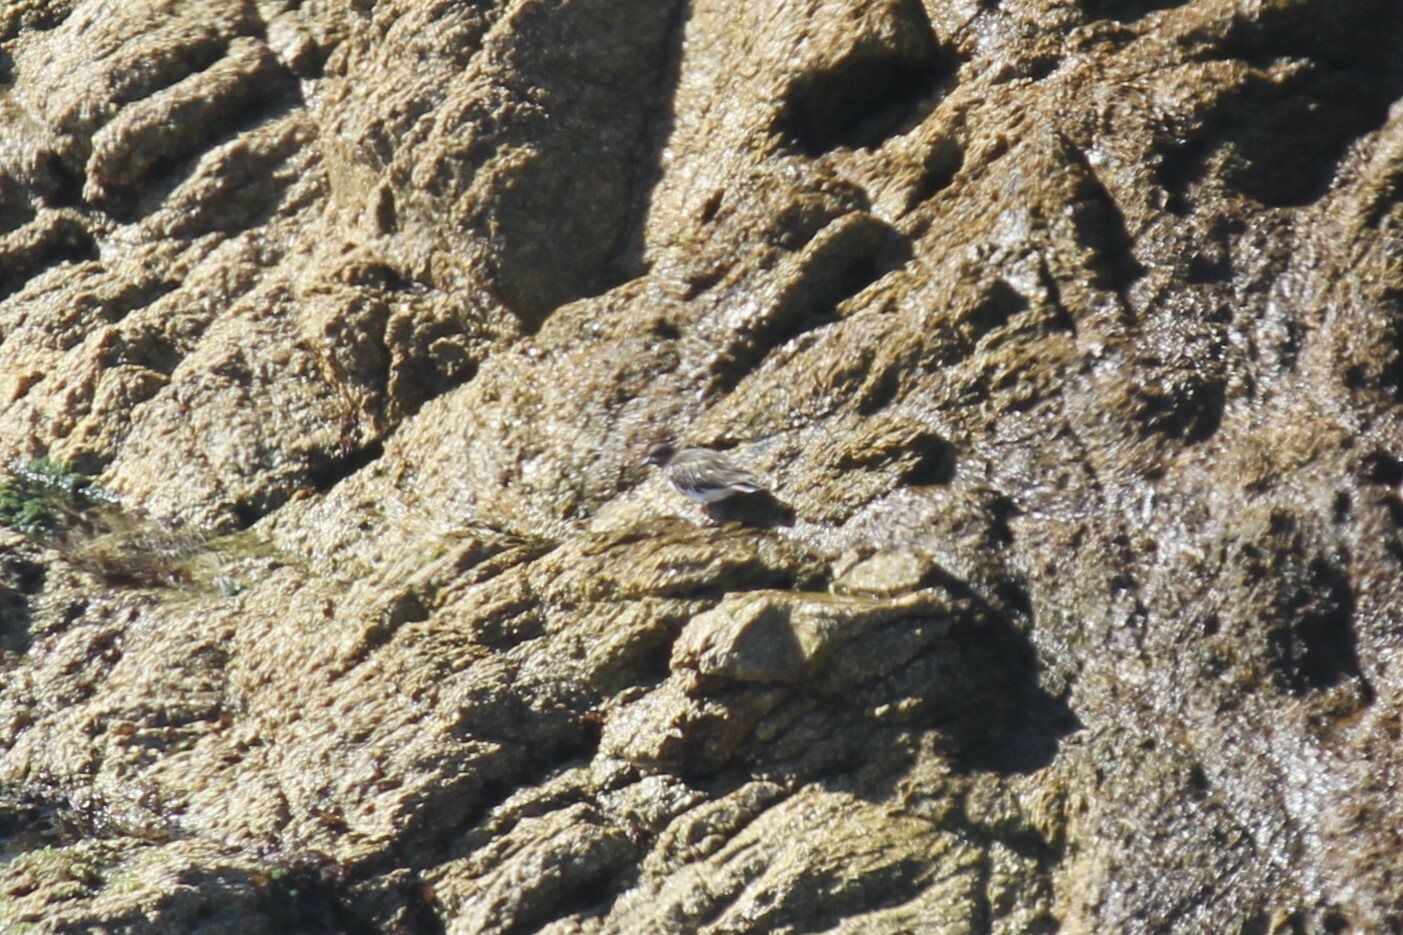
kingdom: Animalia
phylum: Chordata
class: Aves
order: Charadriiformes
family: Scolopacidae
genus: Arenaria
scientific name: Arenaria melanocephala
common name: Black turnstone
